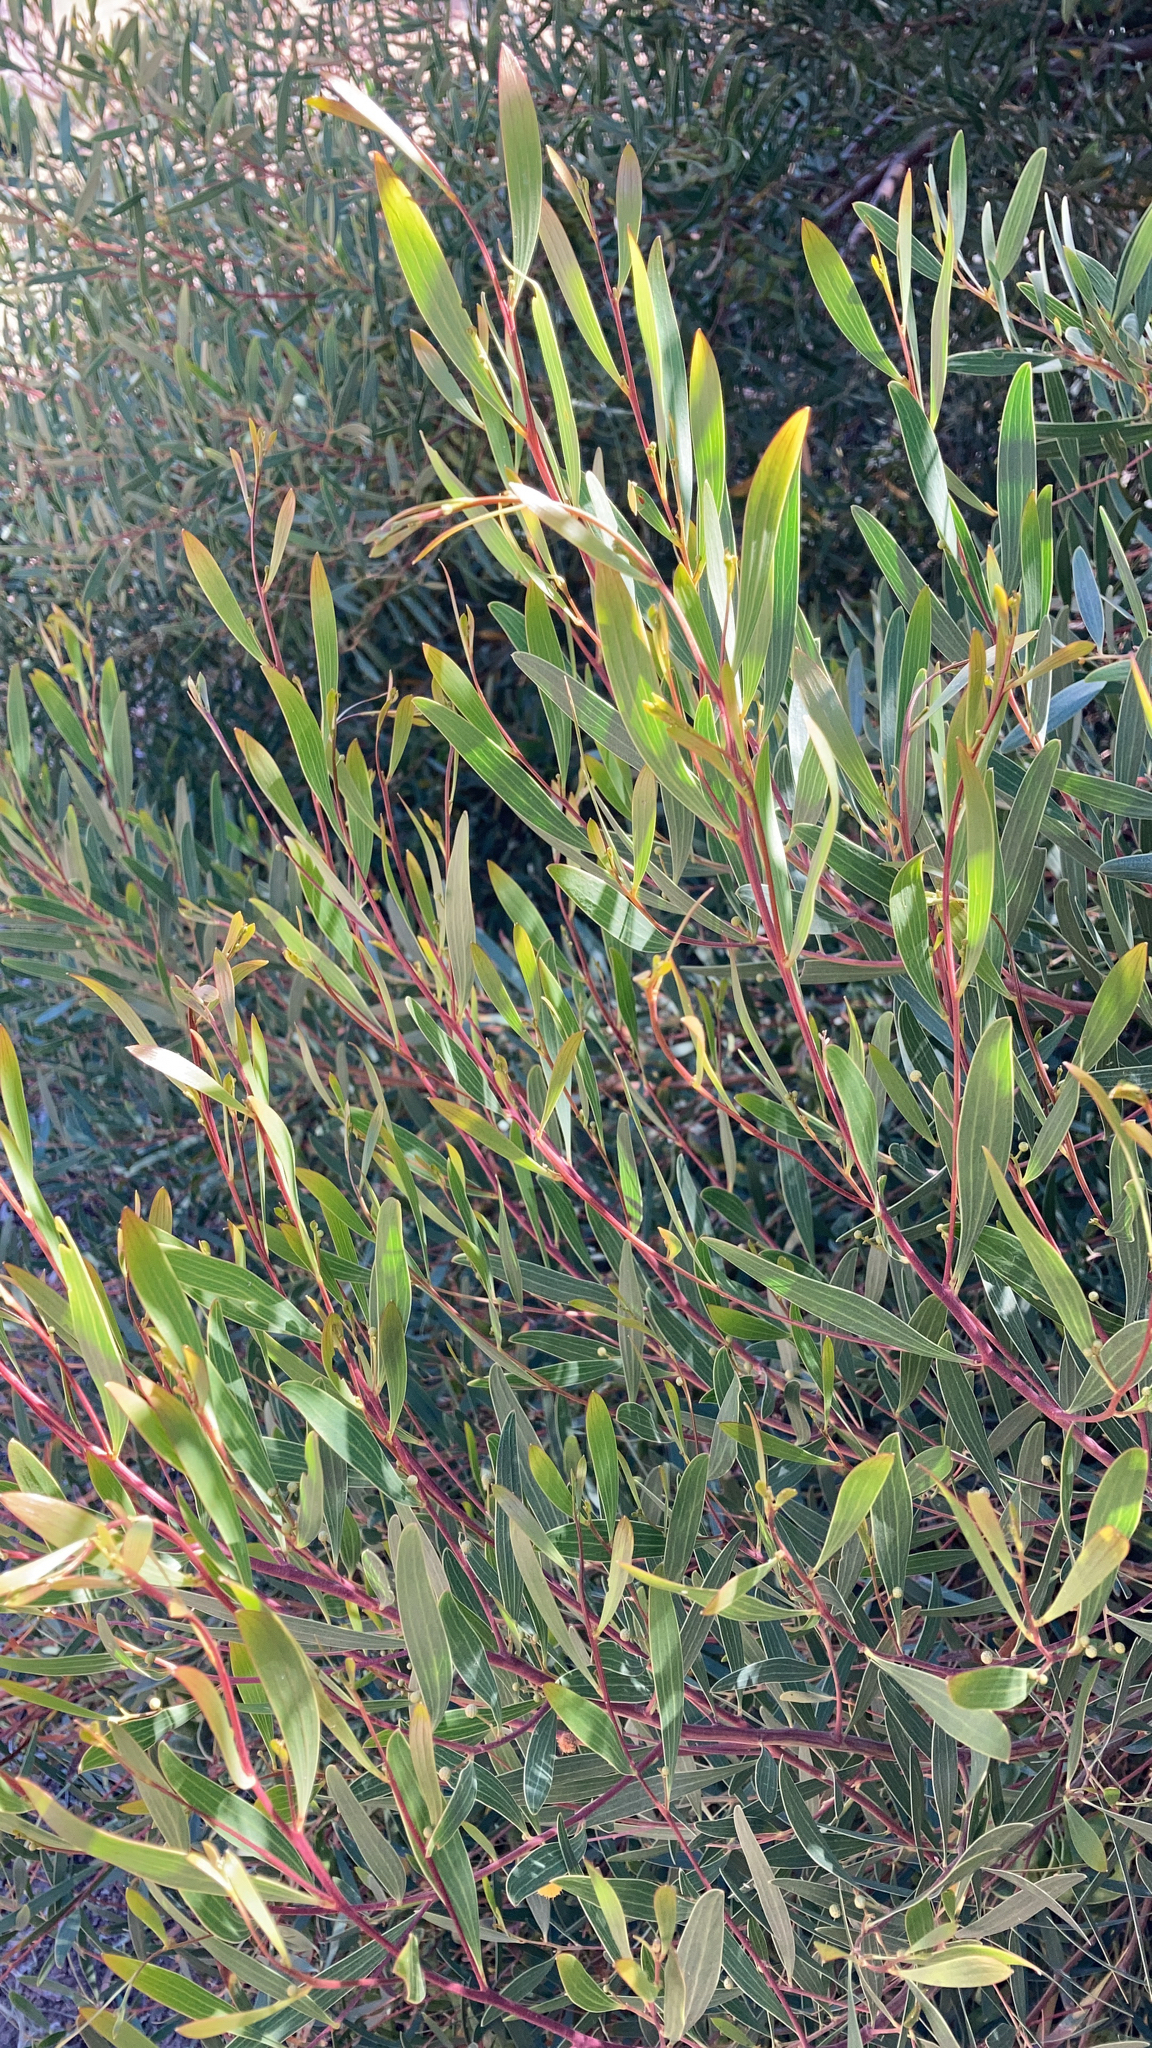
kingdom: Plantae
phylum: Tracheophyta
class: Magnoliopsida
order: Fabales
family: Fabaceae
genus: Acacia
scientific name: Acacia cyclops
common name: Coastal wattle
